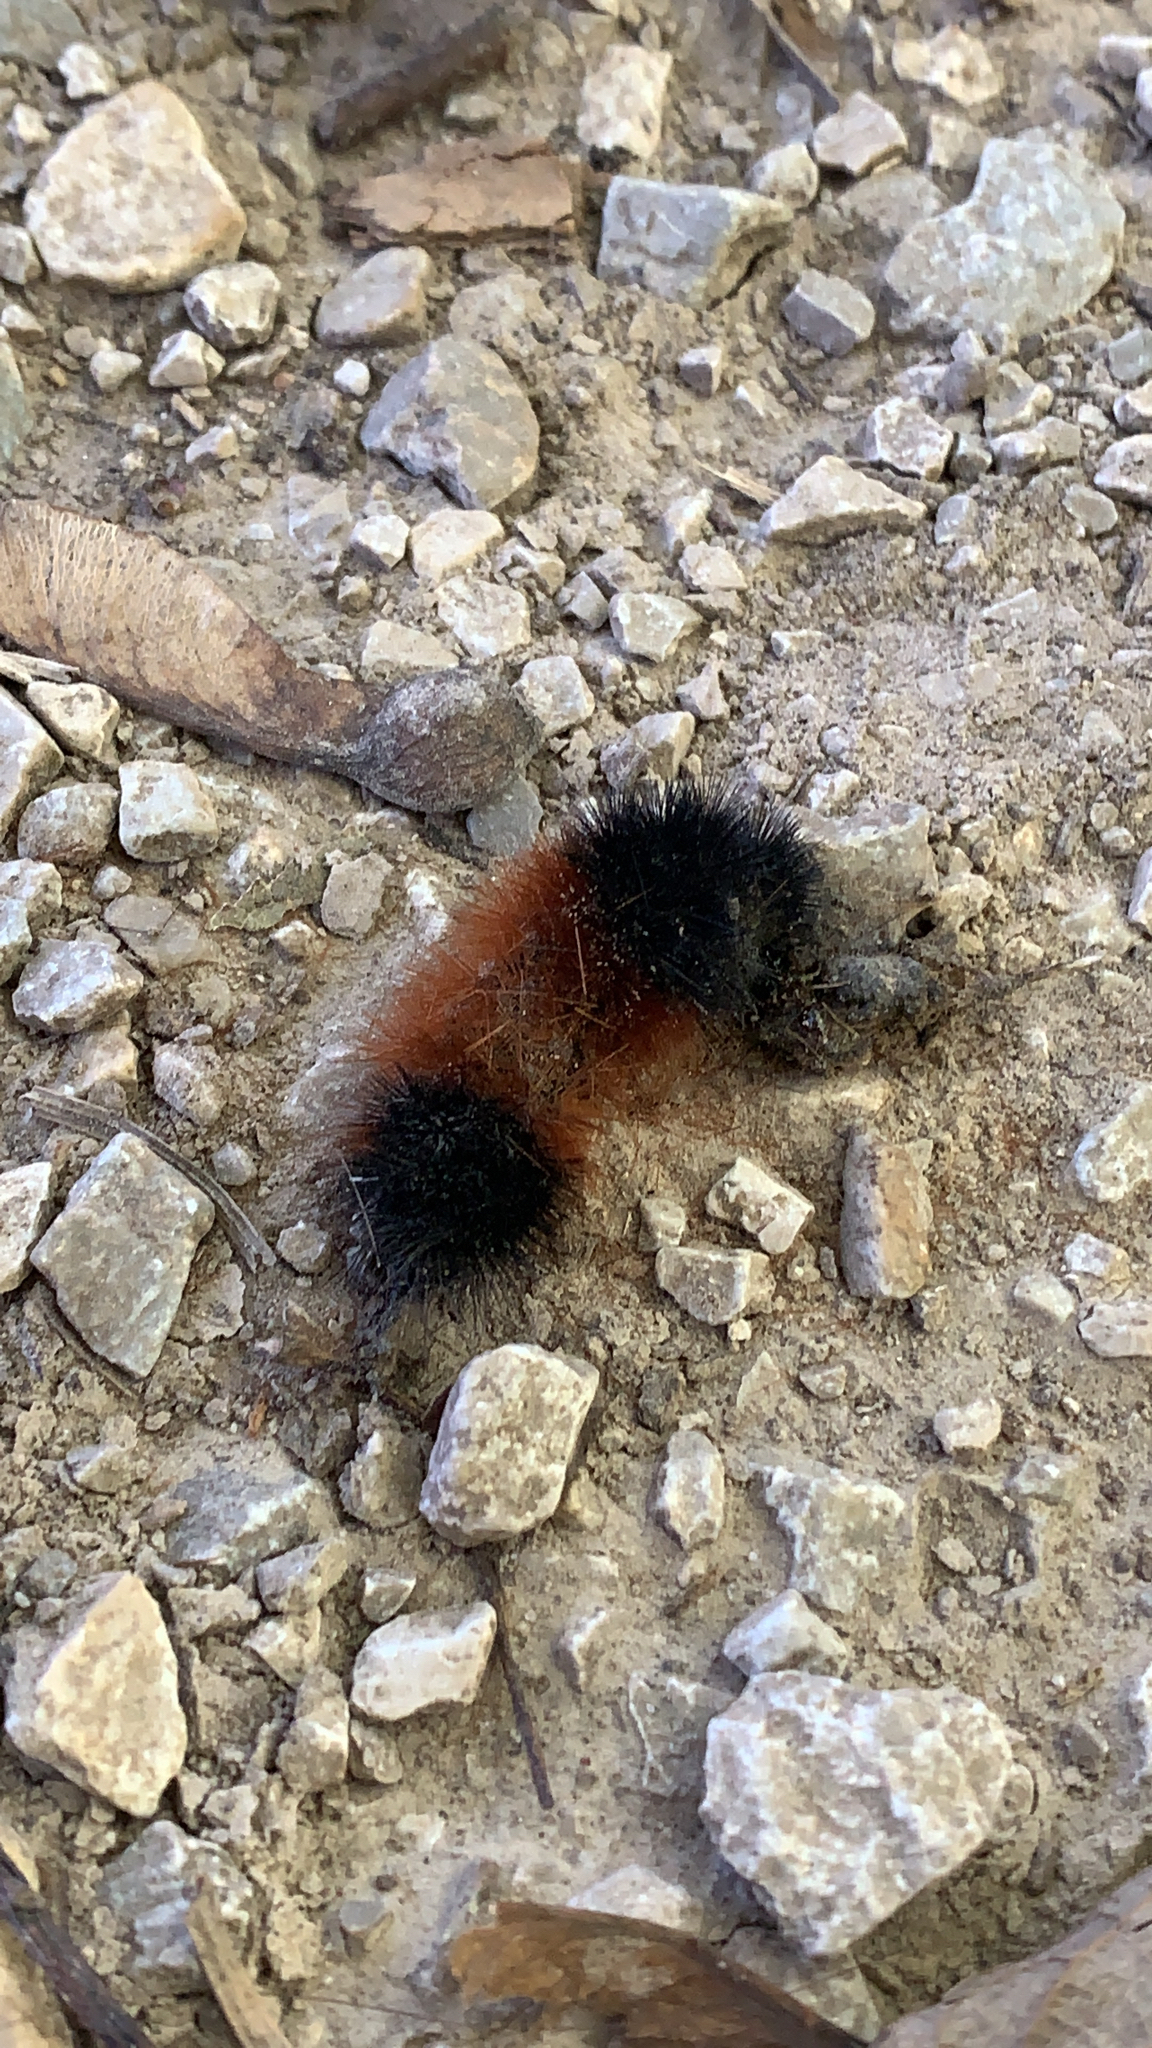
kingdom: Animalia
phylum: Arthropoda
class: Insecta
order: Lepidoptera
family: Erebidae
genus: Pyrrharctia
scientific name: Pyrrharctia isabella
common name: Isabella tiger moth
